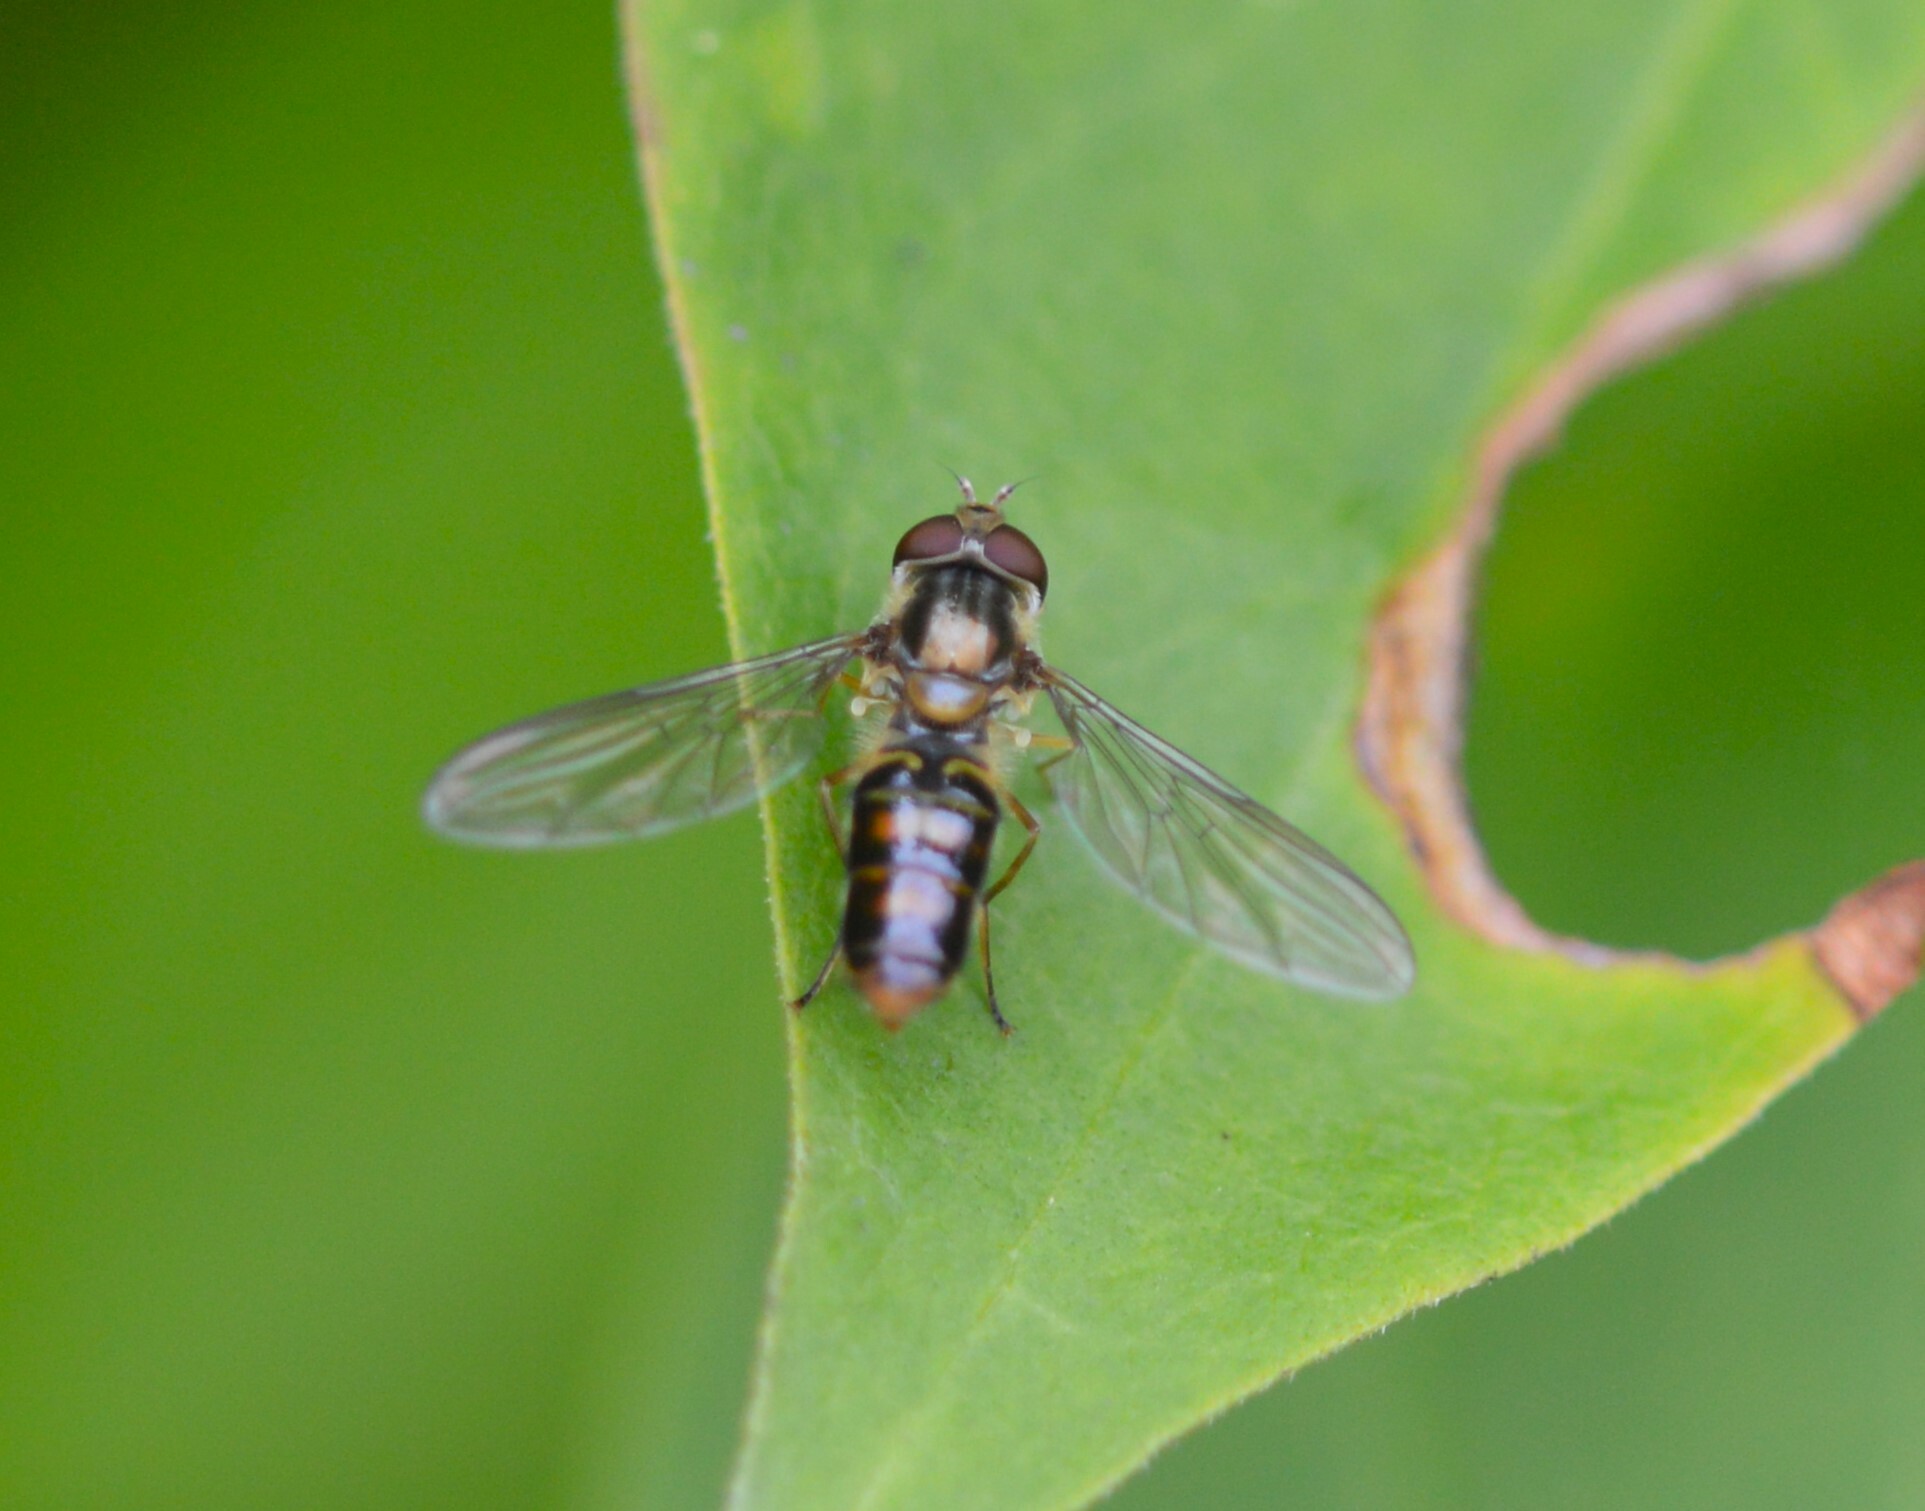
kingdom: Animalia
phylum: Arthropoda
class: Insecta
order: Diptera
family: Syrphidae
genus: Episyrphus
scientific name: Episyrphus balteatus
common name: Marmalade hoverfly
